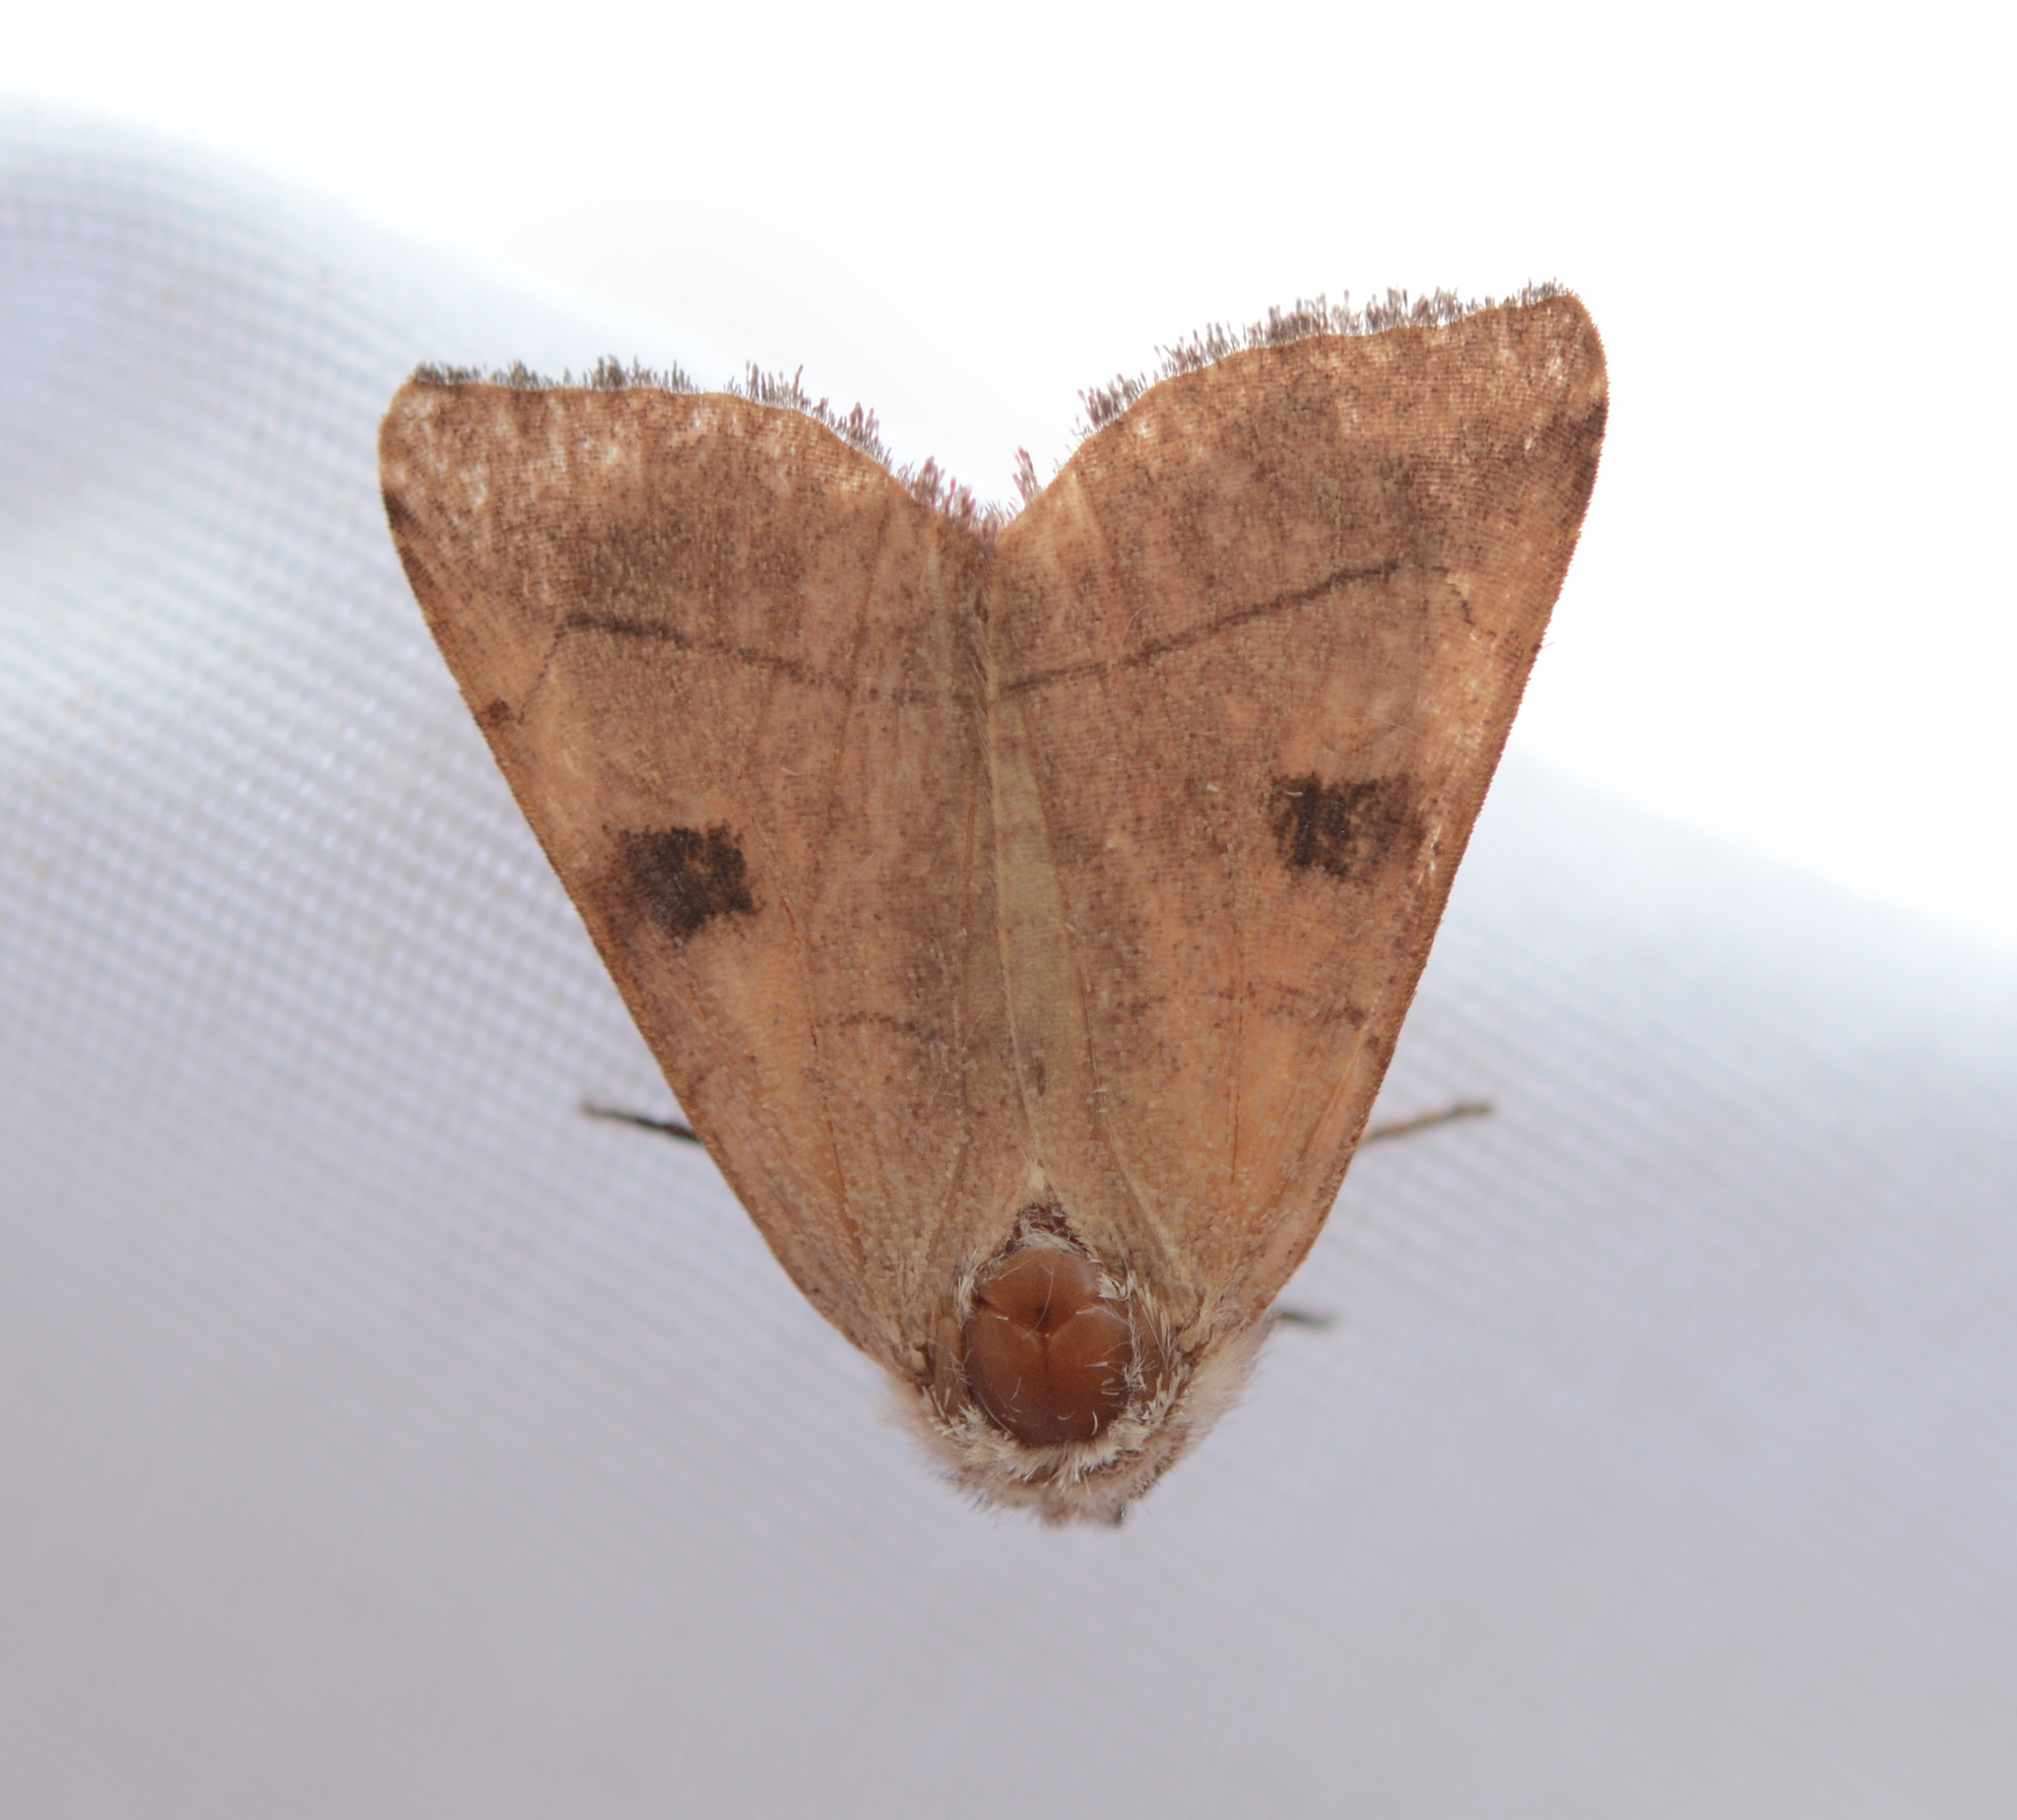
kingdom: Animalia
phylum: Arthropoda
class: Insecta
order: Lepidoptera
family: Noctuidae
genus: Choephora
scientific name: Choephora fungorum
